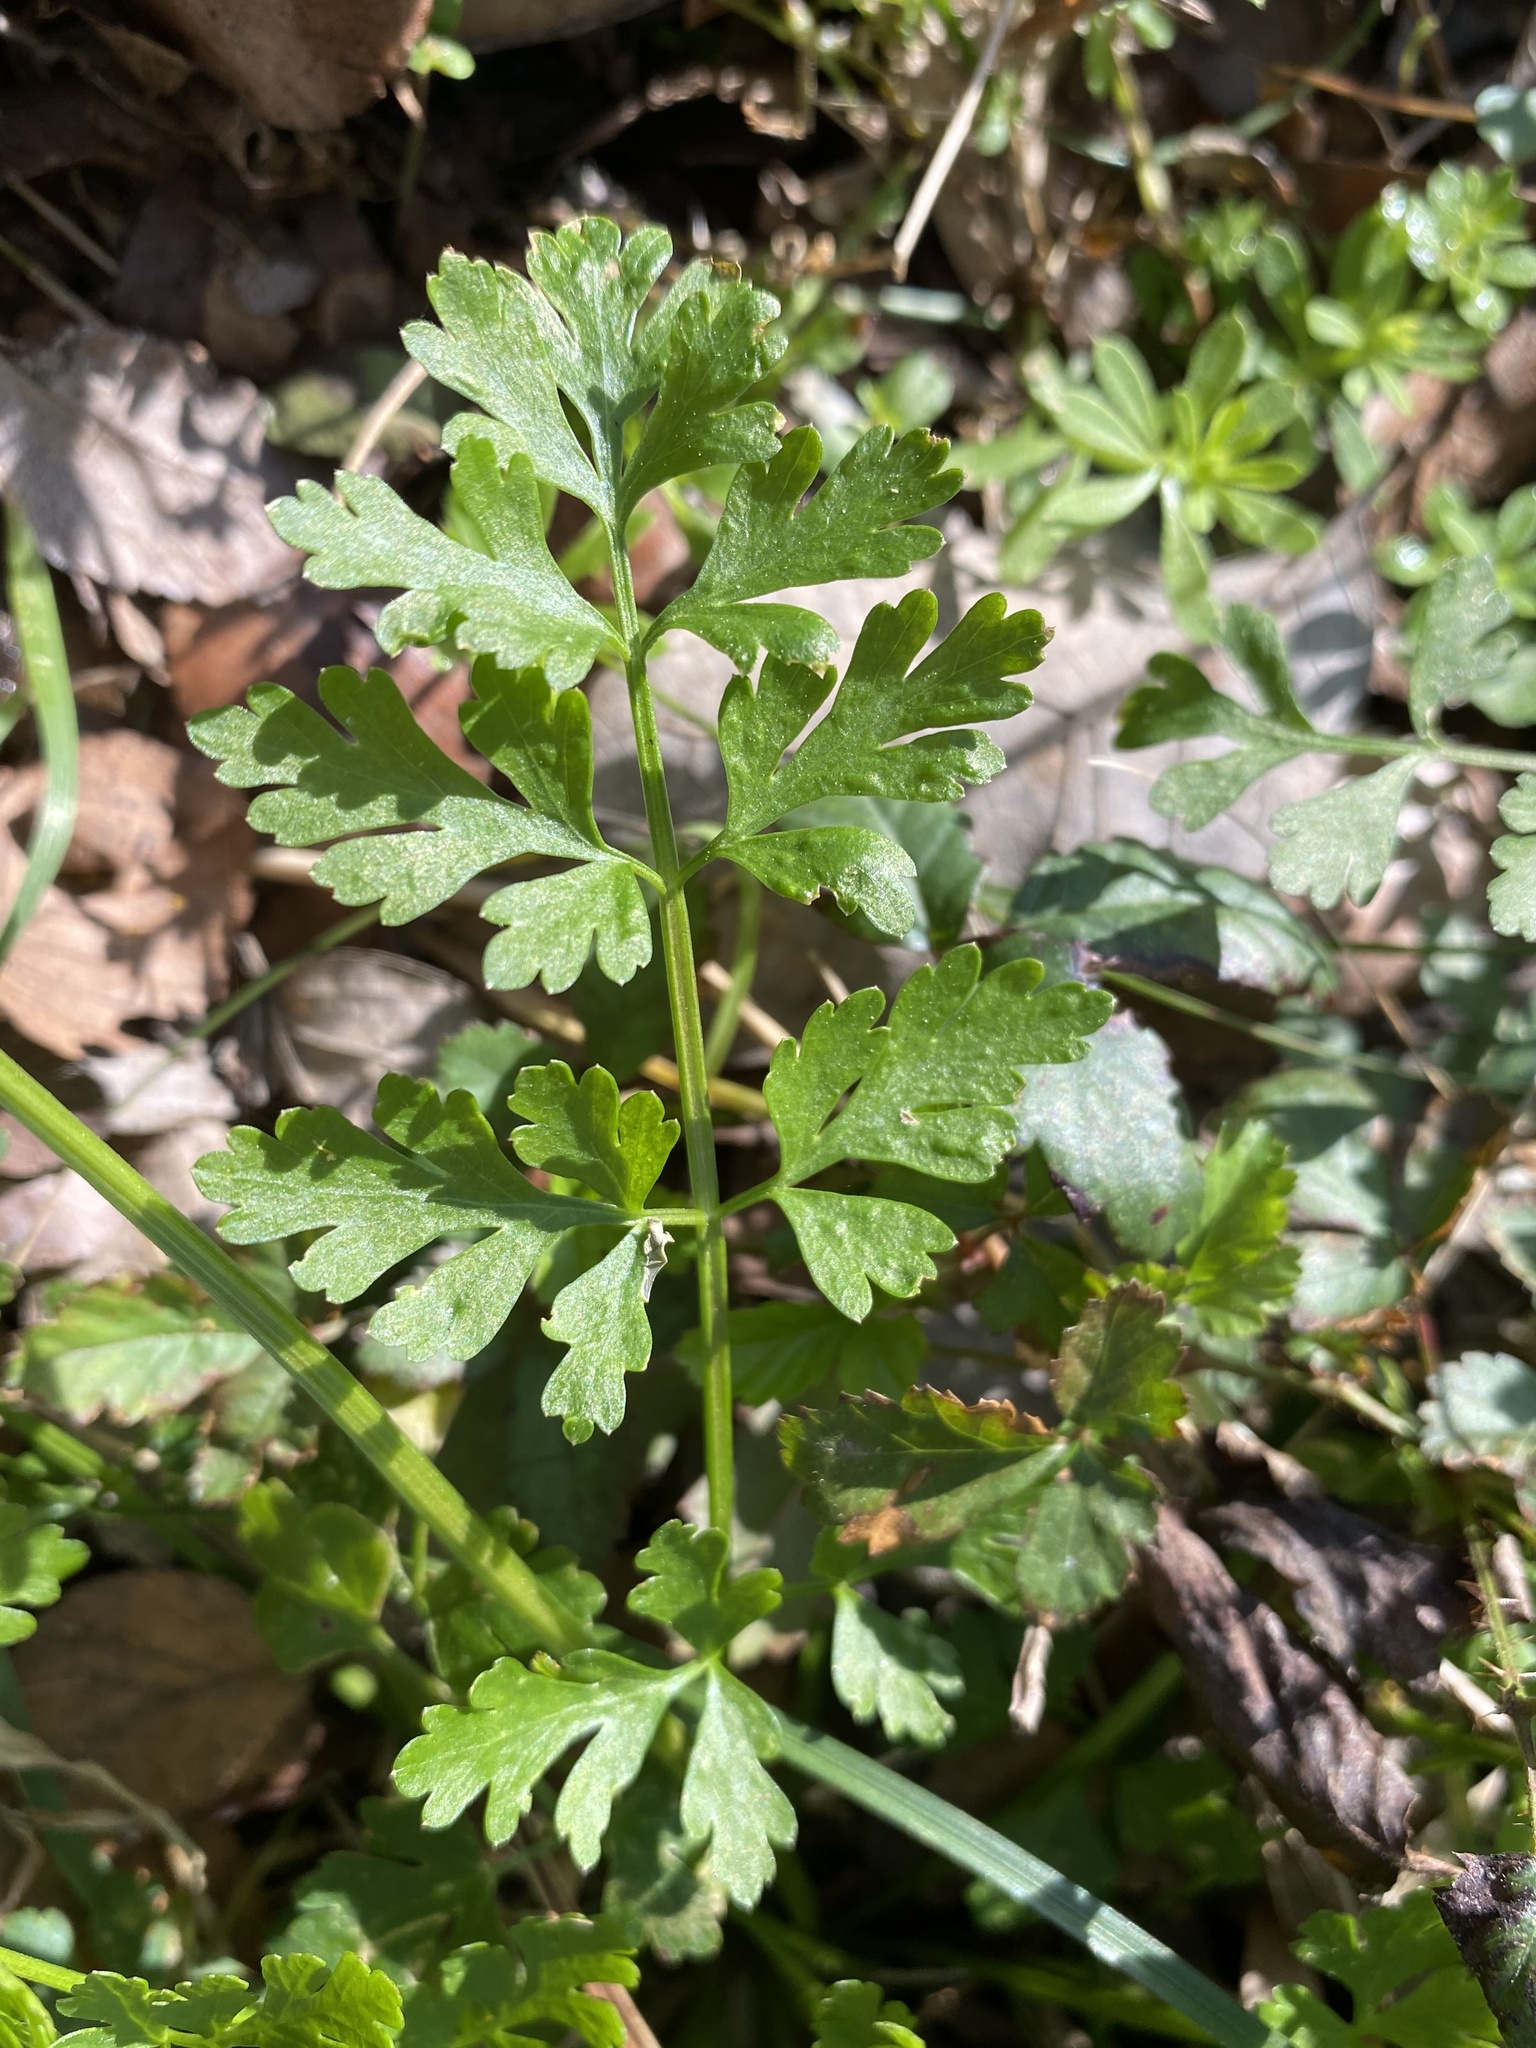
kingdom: Plantae
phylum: Tracheophyta
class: Magnoliopsida
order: Apiales
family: Apiaceae
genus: Tauschia
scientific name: Tauschia texana
